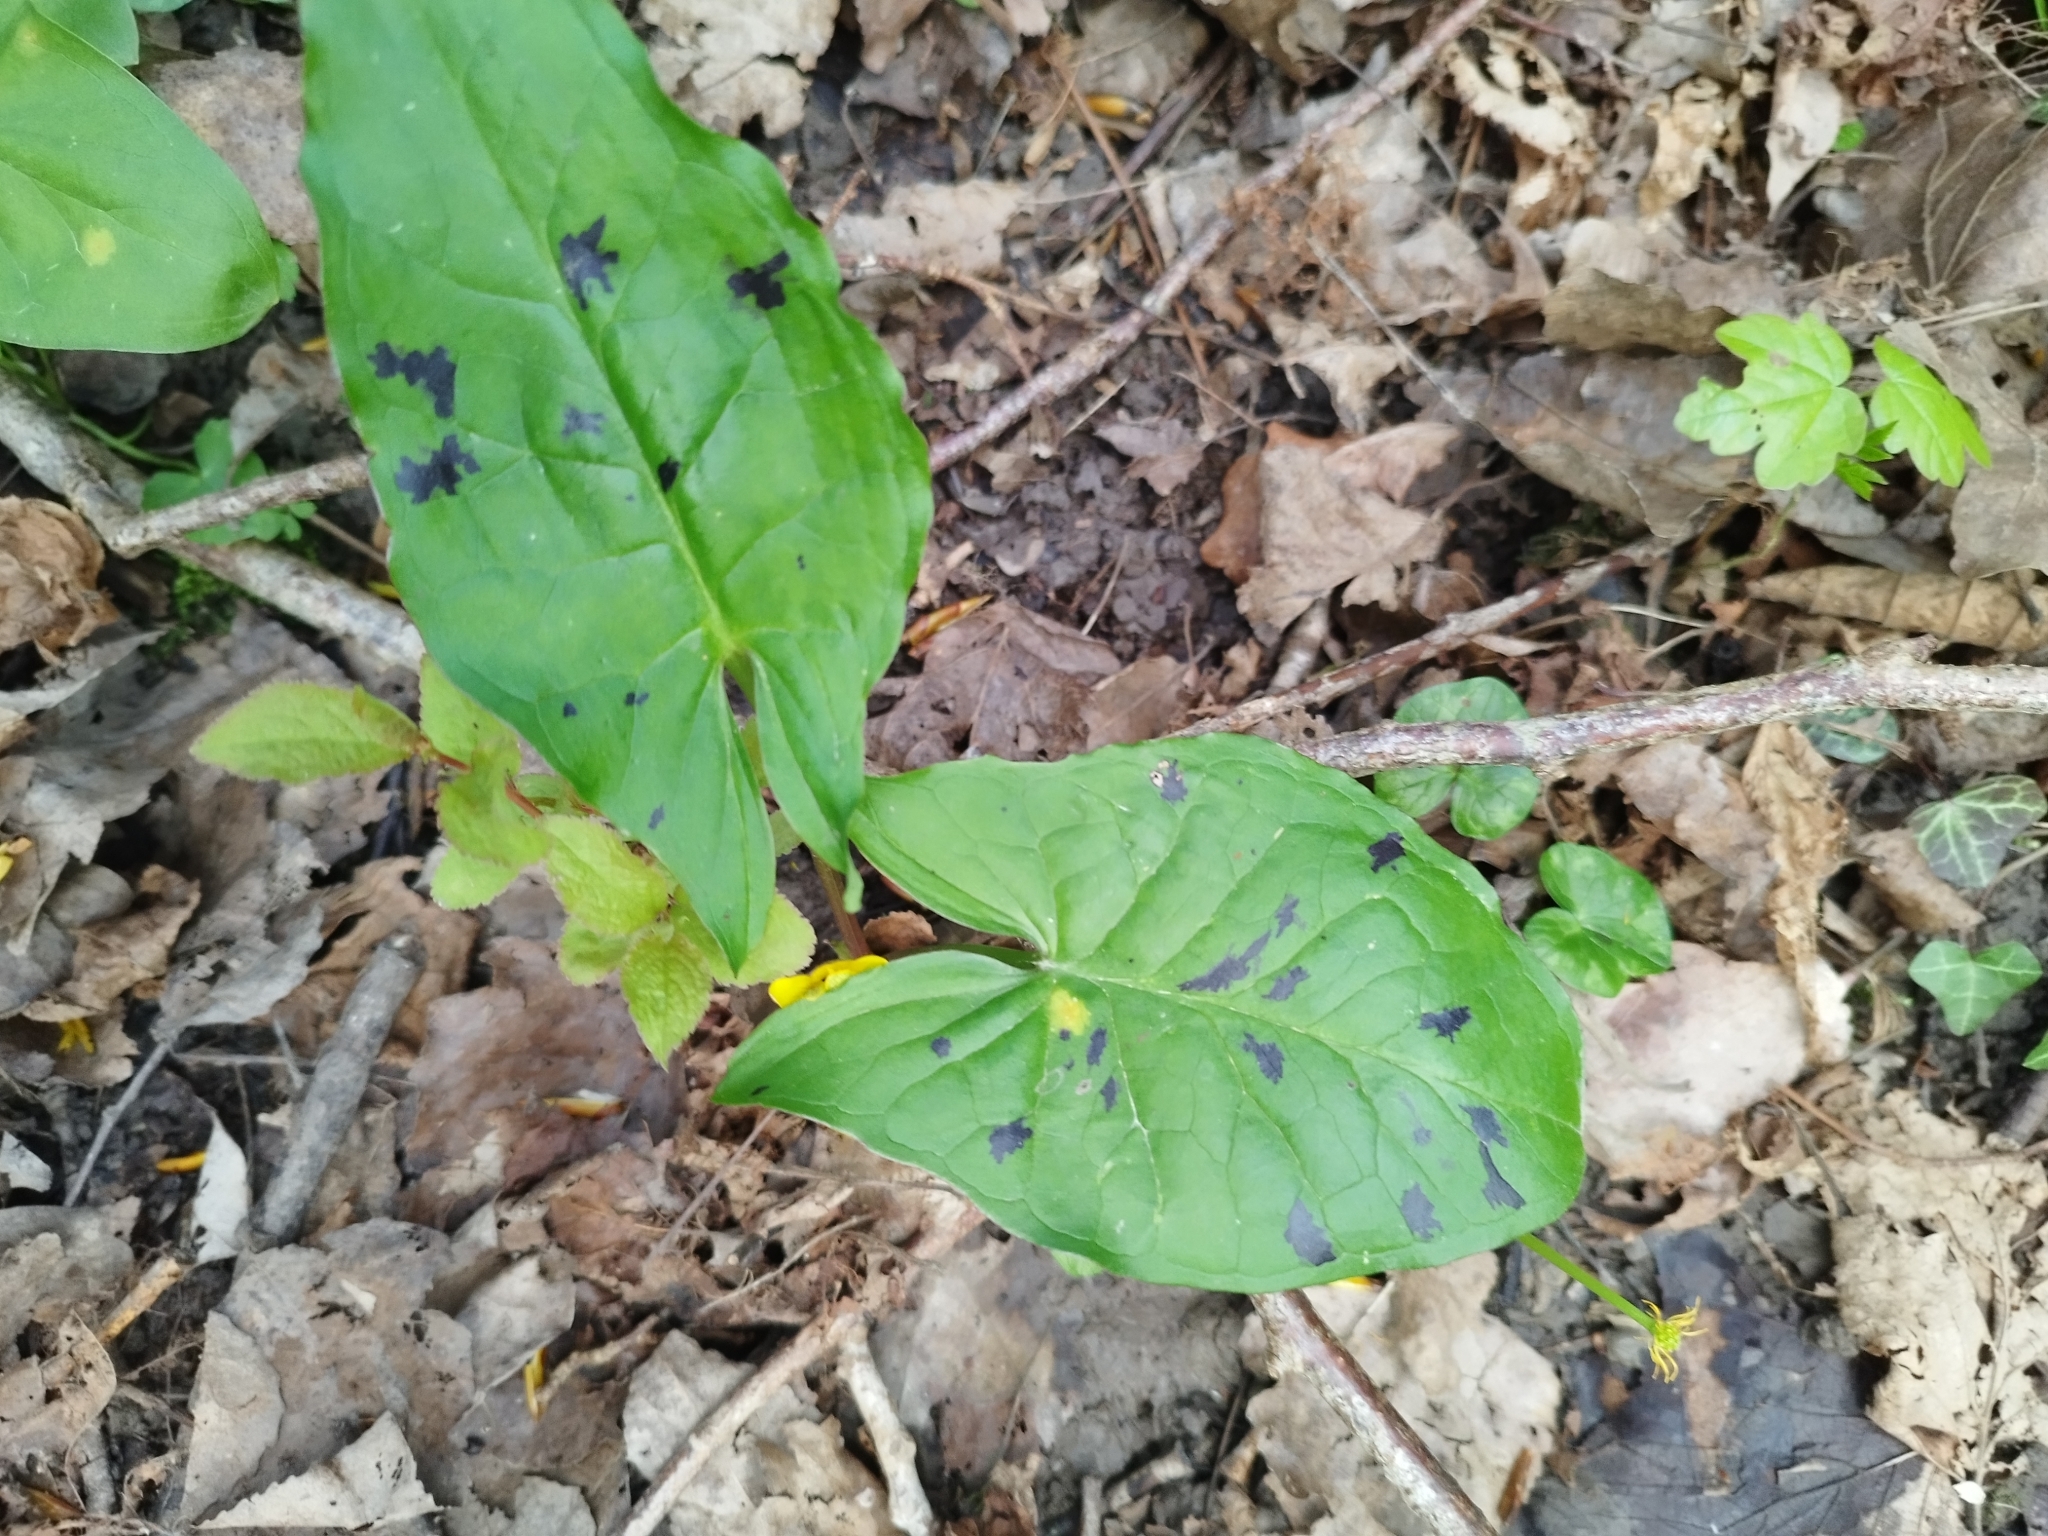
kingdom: Plantae
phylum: Tracheophyta
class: Liliopsida
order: Alismatales
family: Araceae
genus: Arum
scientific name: Arum maculatum
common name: Lords-and-ladies
